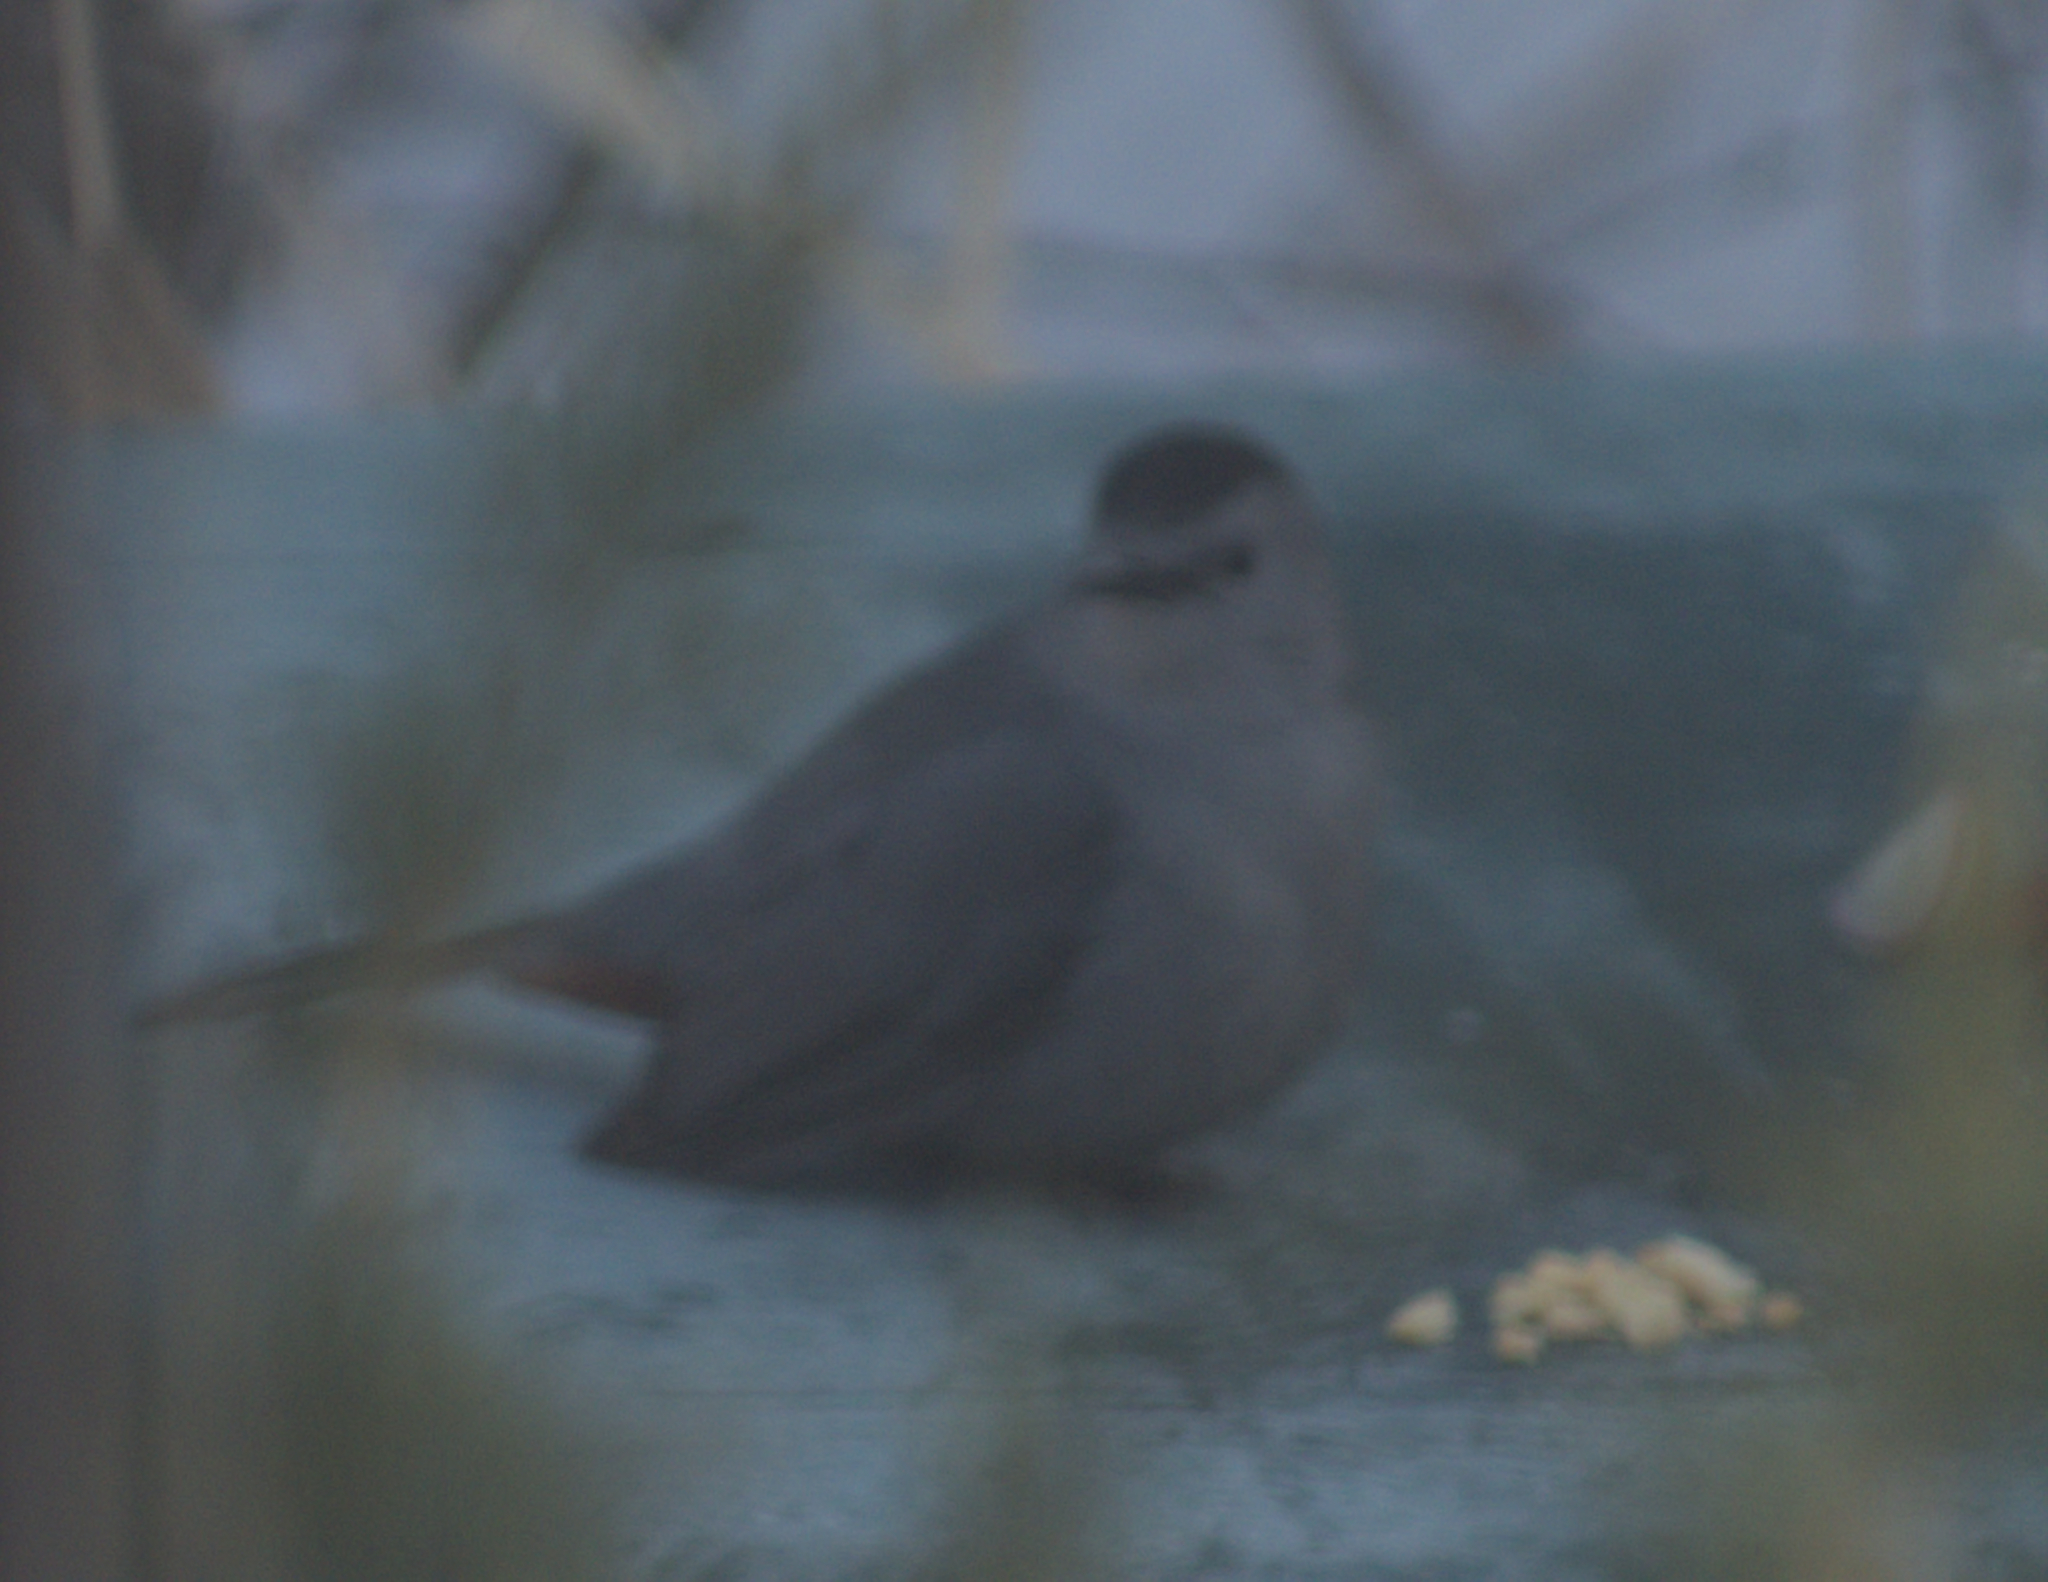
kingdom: Animalia
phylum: Chordata
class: Aves
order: Passeriformes
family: Mimidae
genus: Dumetella
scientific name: Dumetella carolinensis
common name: Gray catbird
